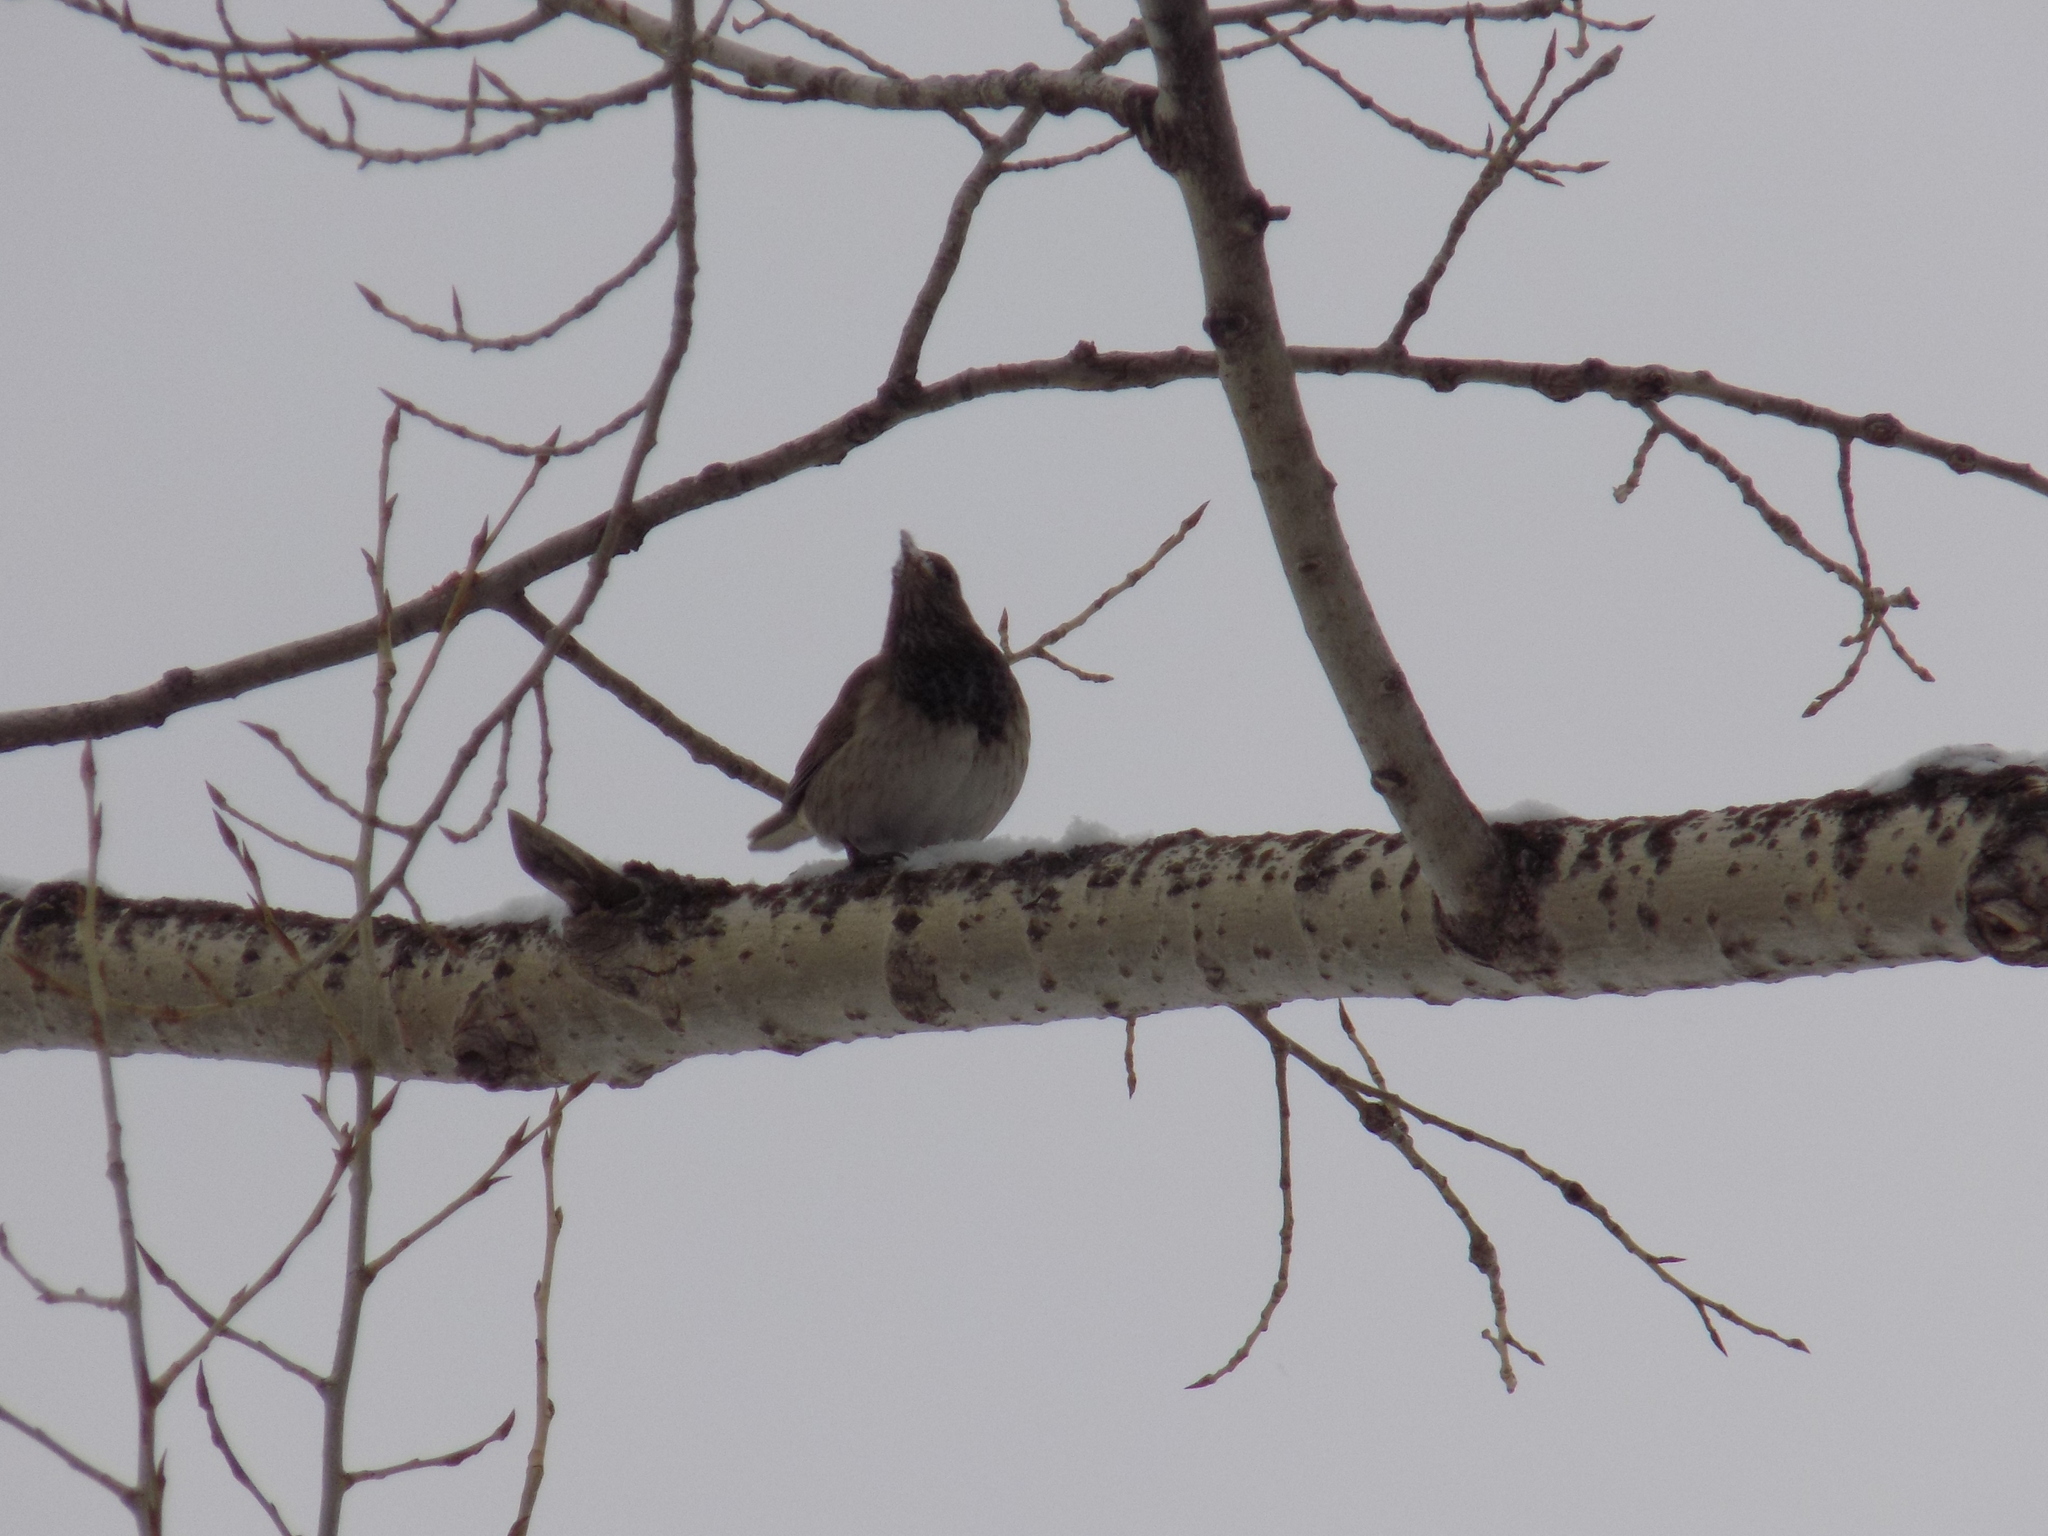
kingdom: Animalia
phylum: Chordata
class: Aves
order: Passeriformes
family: Turdidae
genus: Turdus
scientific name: Turdus atrogularis
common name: Black-throated thrush
